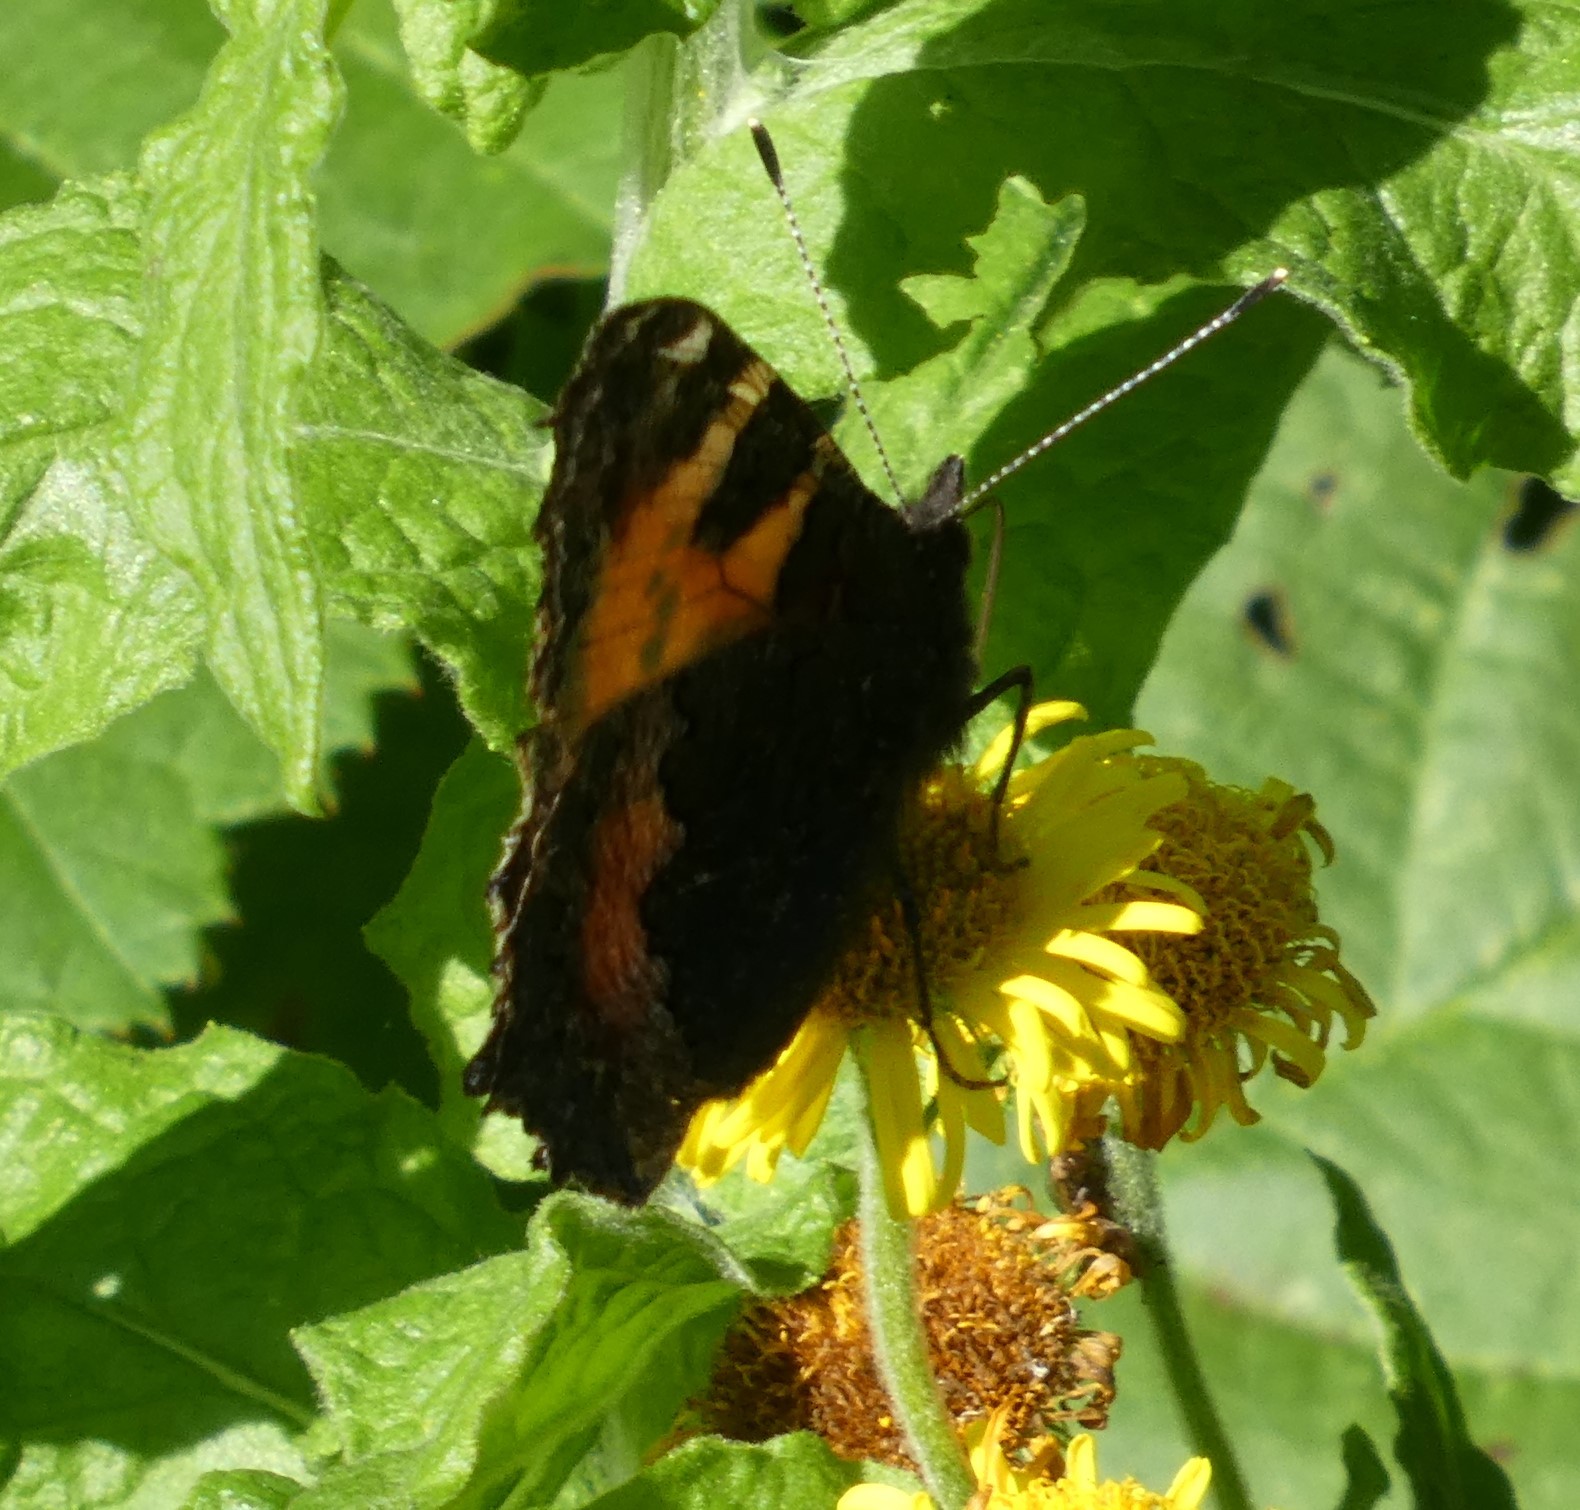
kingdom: Animalia
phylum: Arthropoda
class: Insecta
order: Lepidoptera
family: Nymphalidae
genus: Aglais
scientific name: Aglais urticae
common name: Small tortoiseshell
